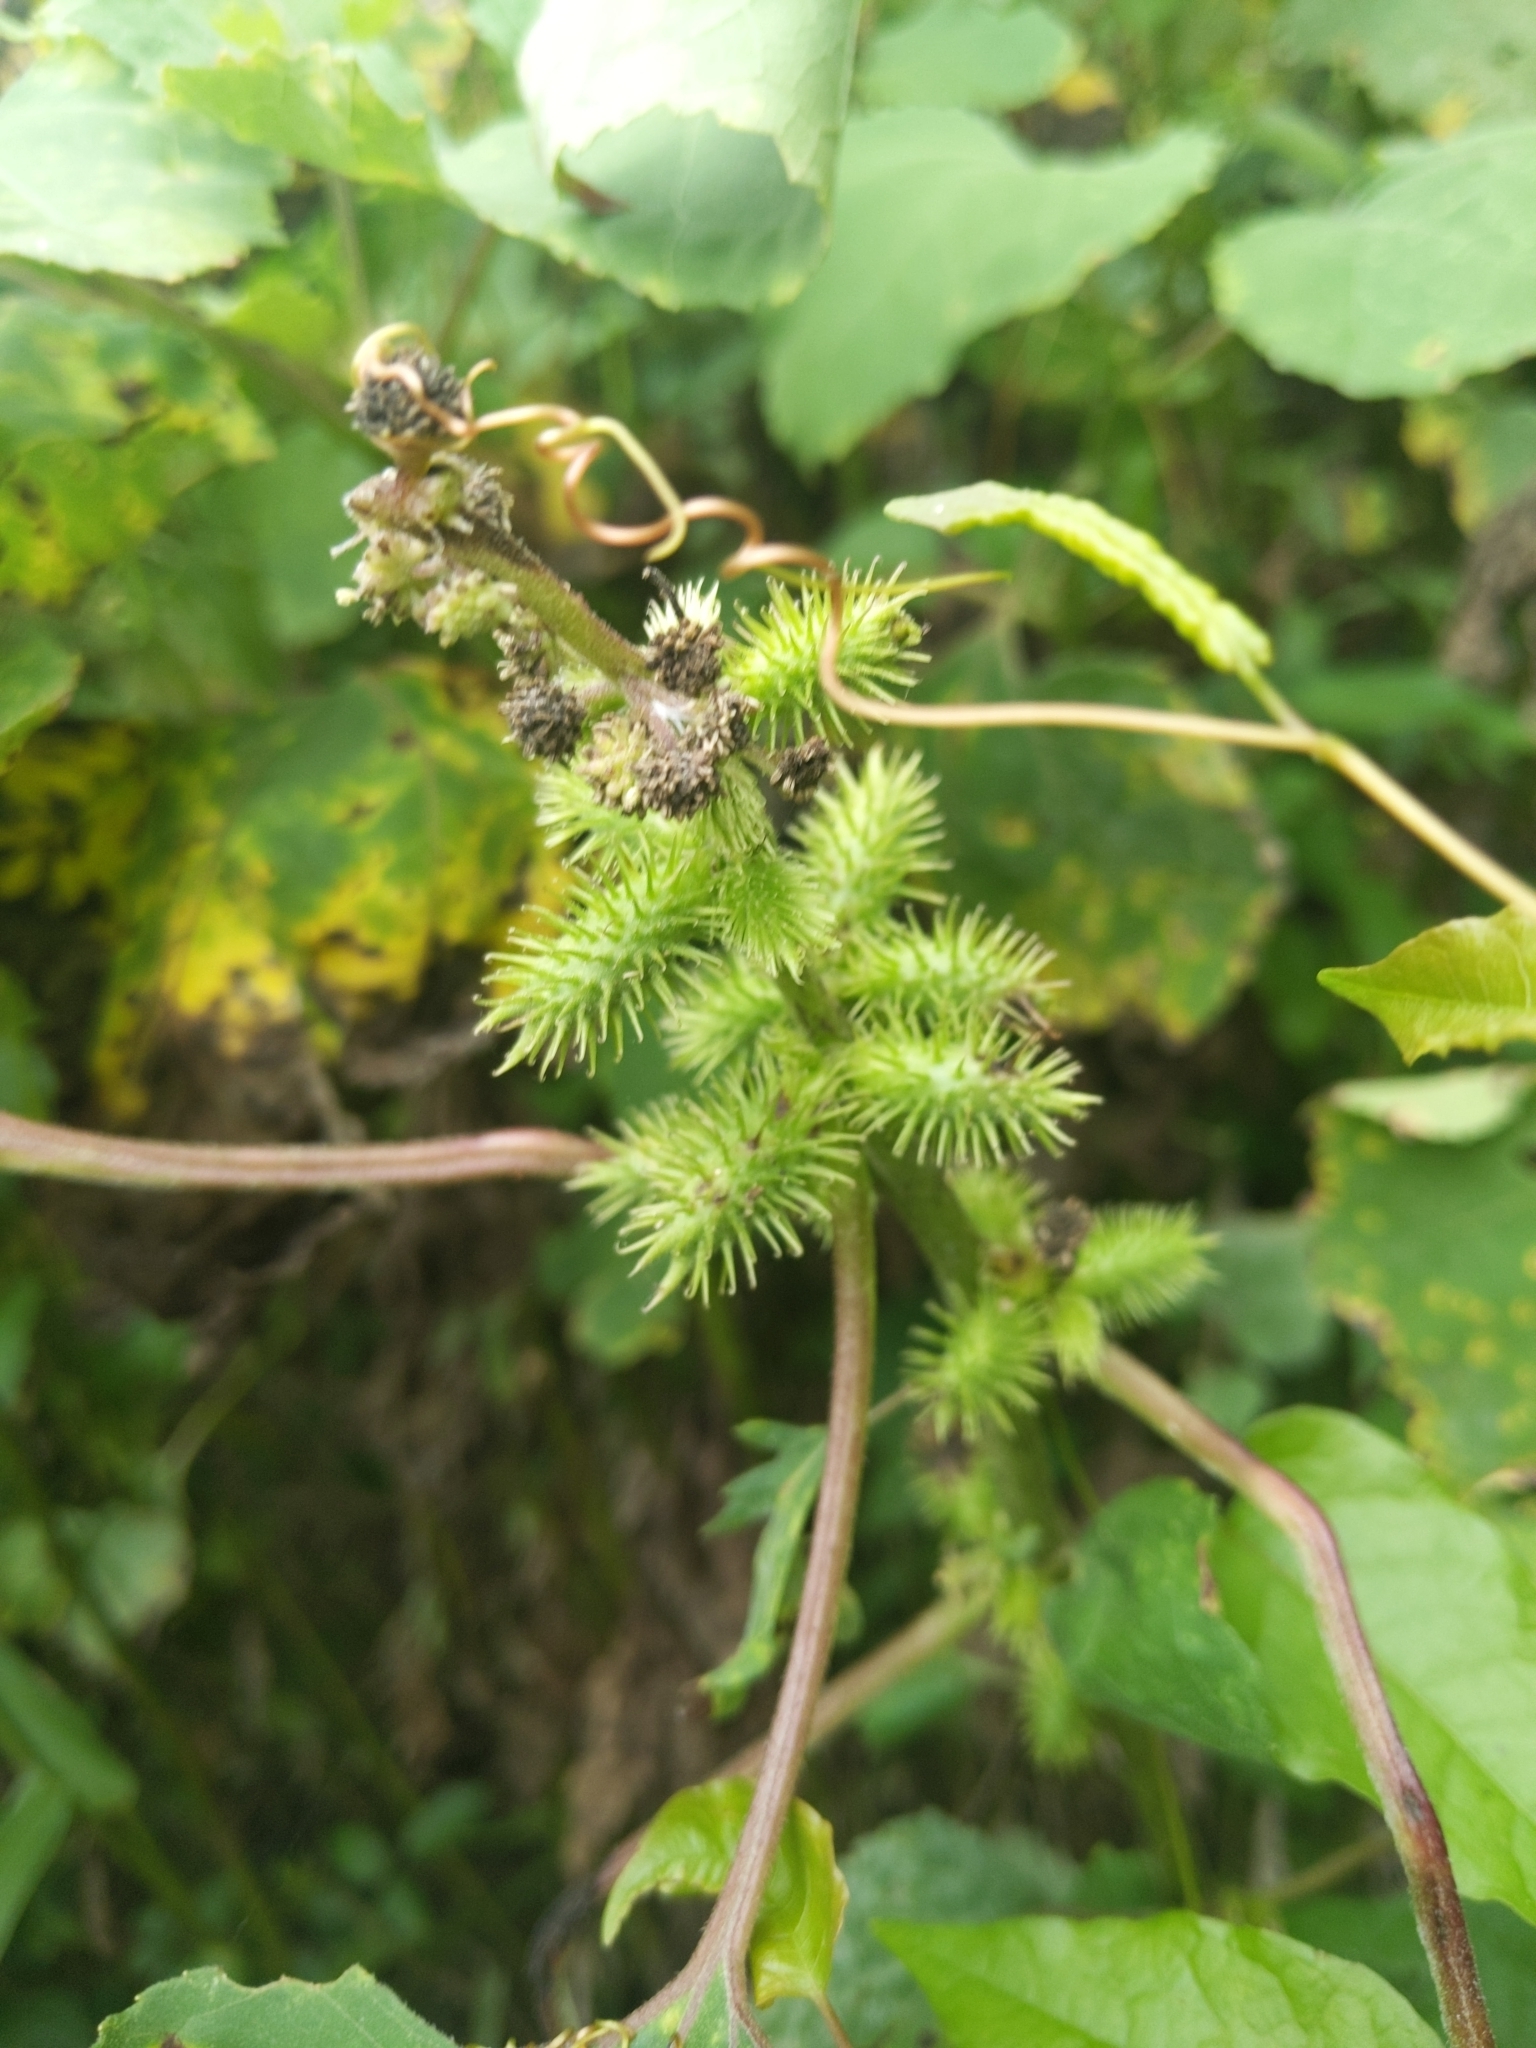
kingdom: Plantae
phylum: Tracheophyta
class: Magnoliopsida
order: Asterales
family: Asteraceae
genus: Xanthium
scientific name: Xanthium strumarium
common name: Rough cocklebur
